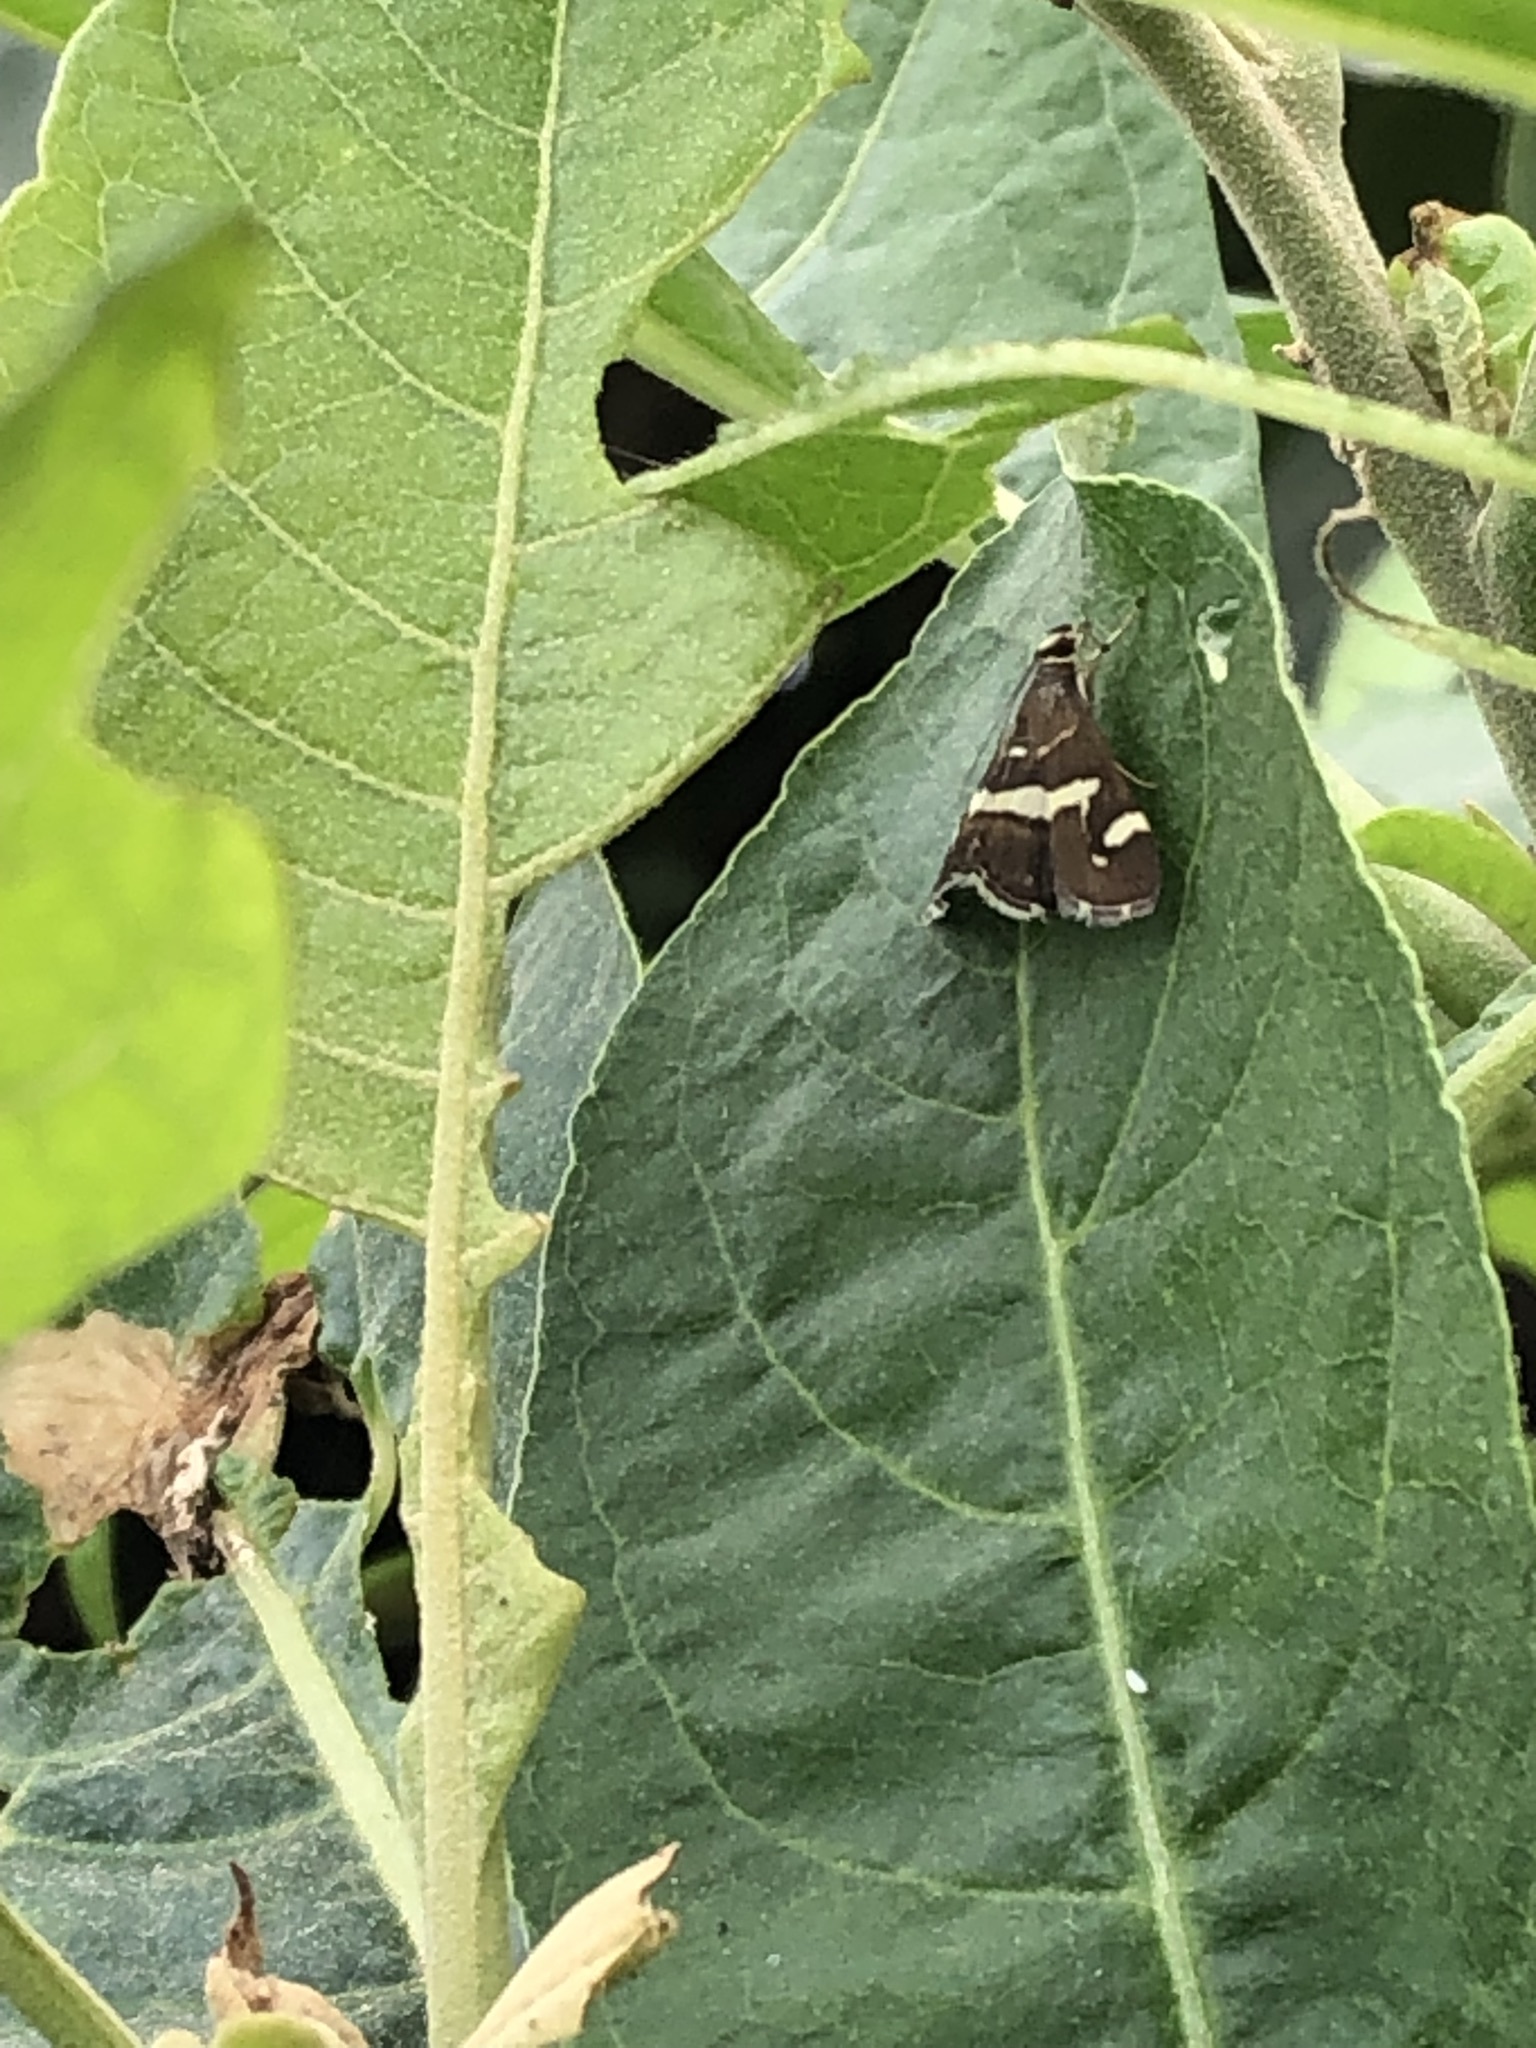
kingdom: Animalia
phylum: Arthropoda
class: Insecta
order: Lepidoptera
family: Crambidae
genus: Spoladea
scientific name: Spoladea recurvalis
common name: Beet webworm moth
